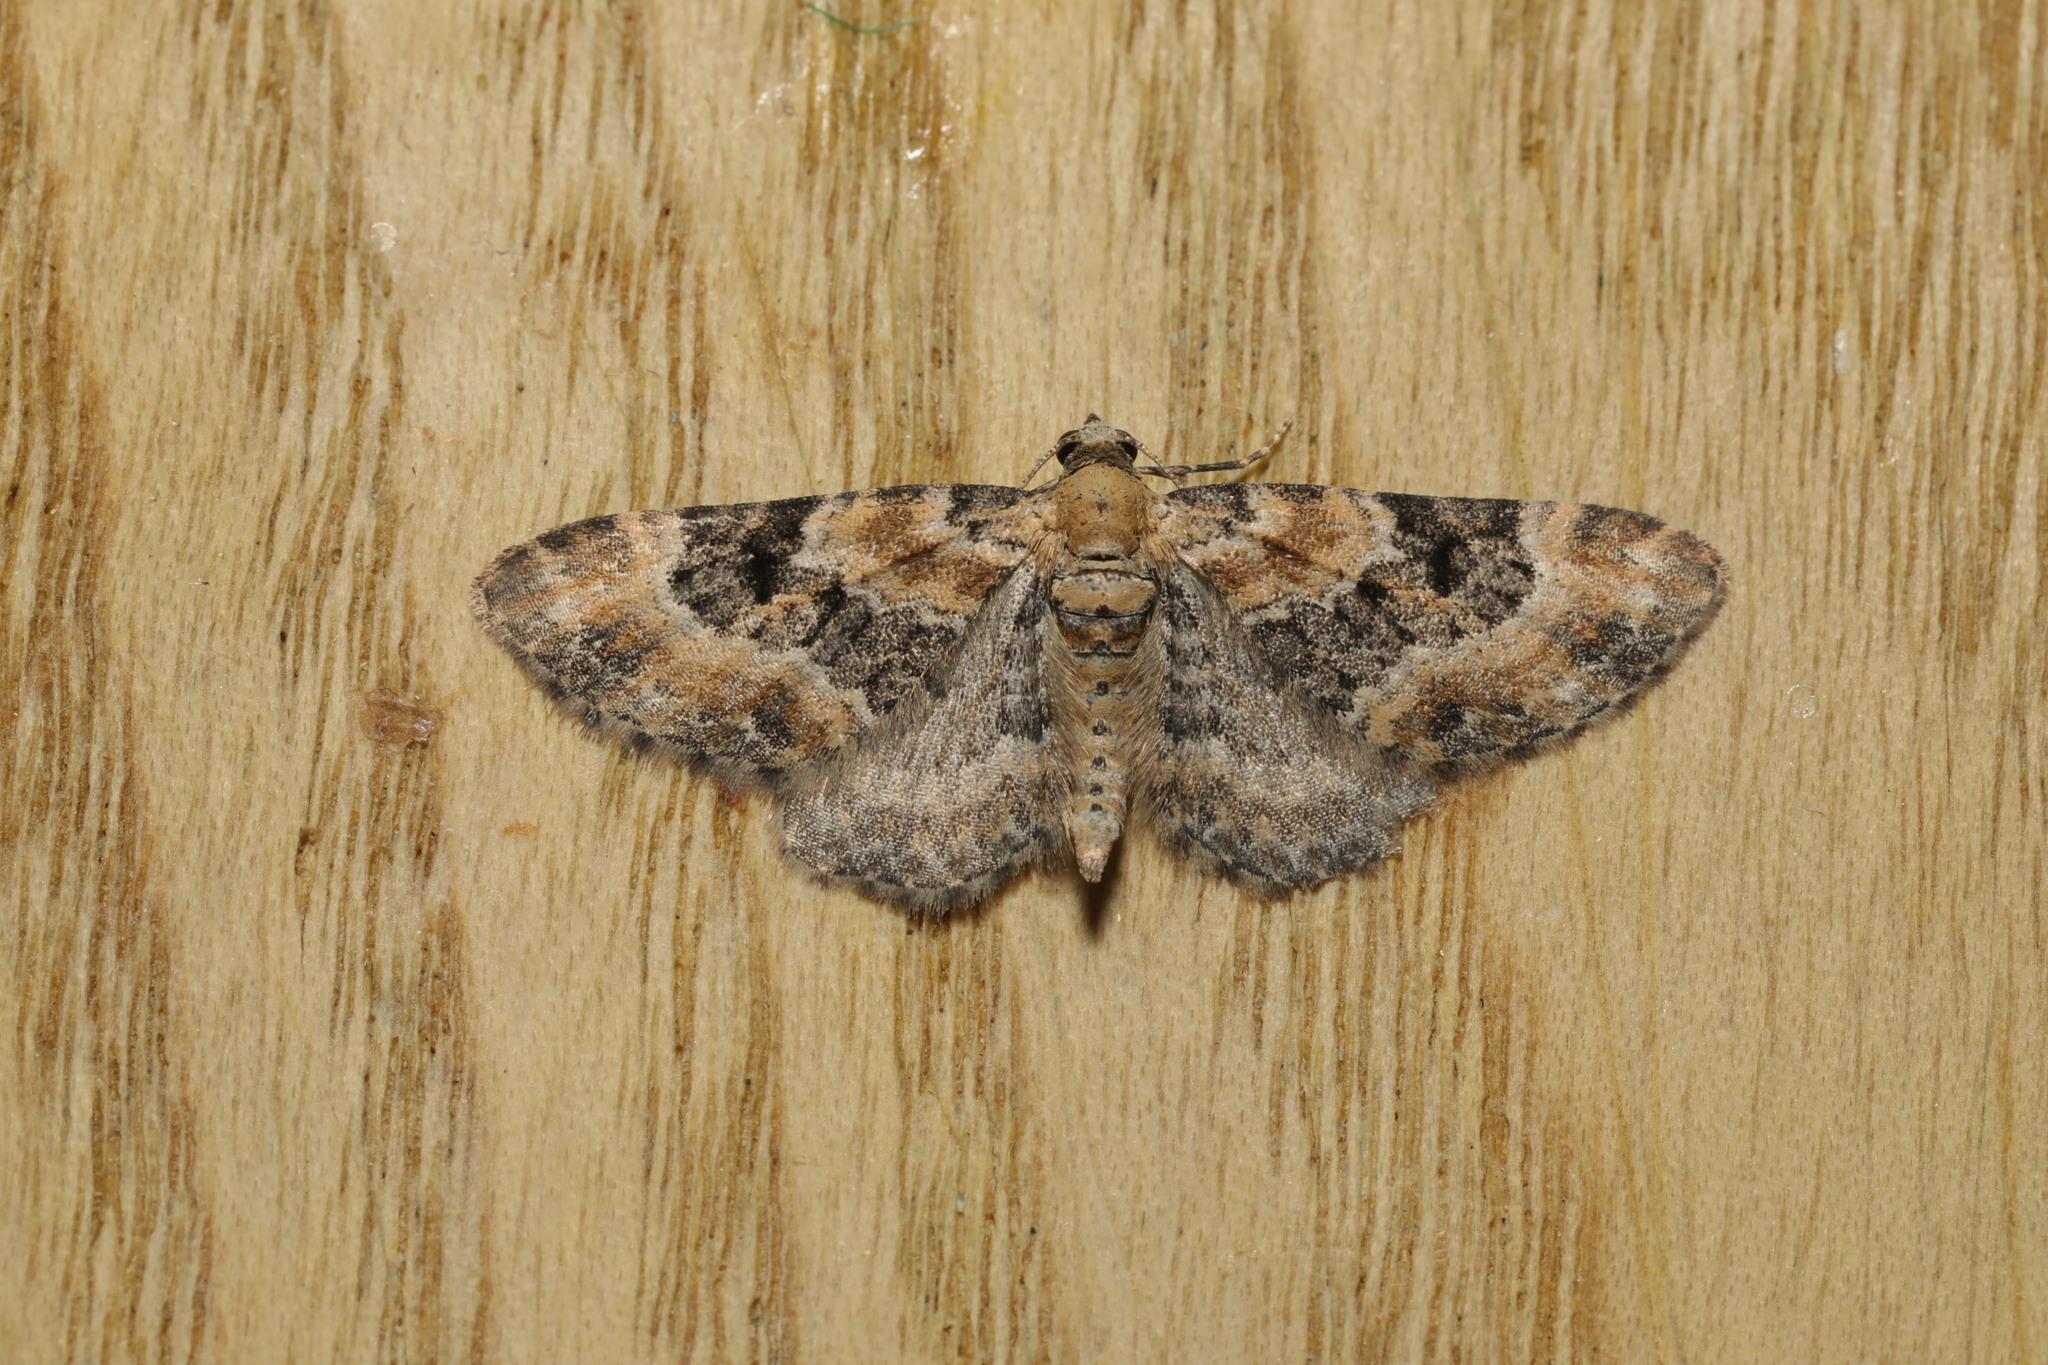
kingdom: Animalia
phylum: Arthropoda
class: Insecta
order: Lepidoptera
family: Geometridae
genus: Eupithecia
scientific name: Eupithecia pulchellata
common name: Foxglove pug
